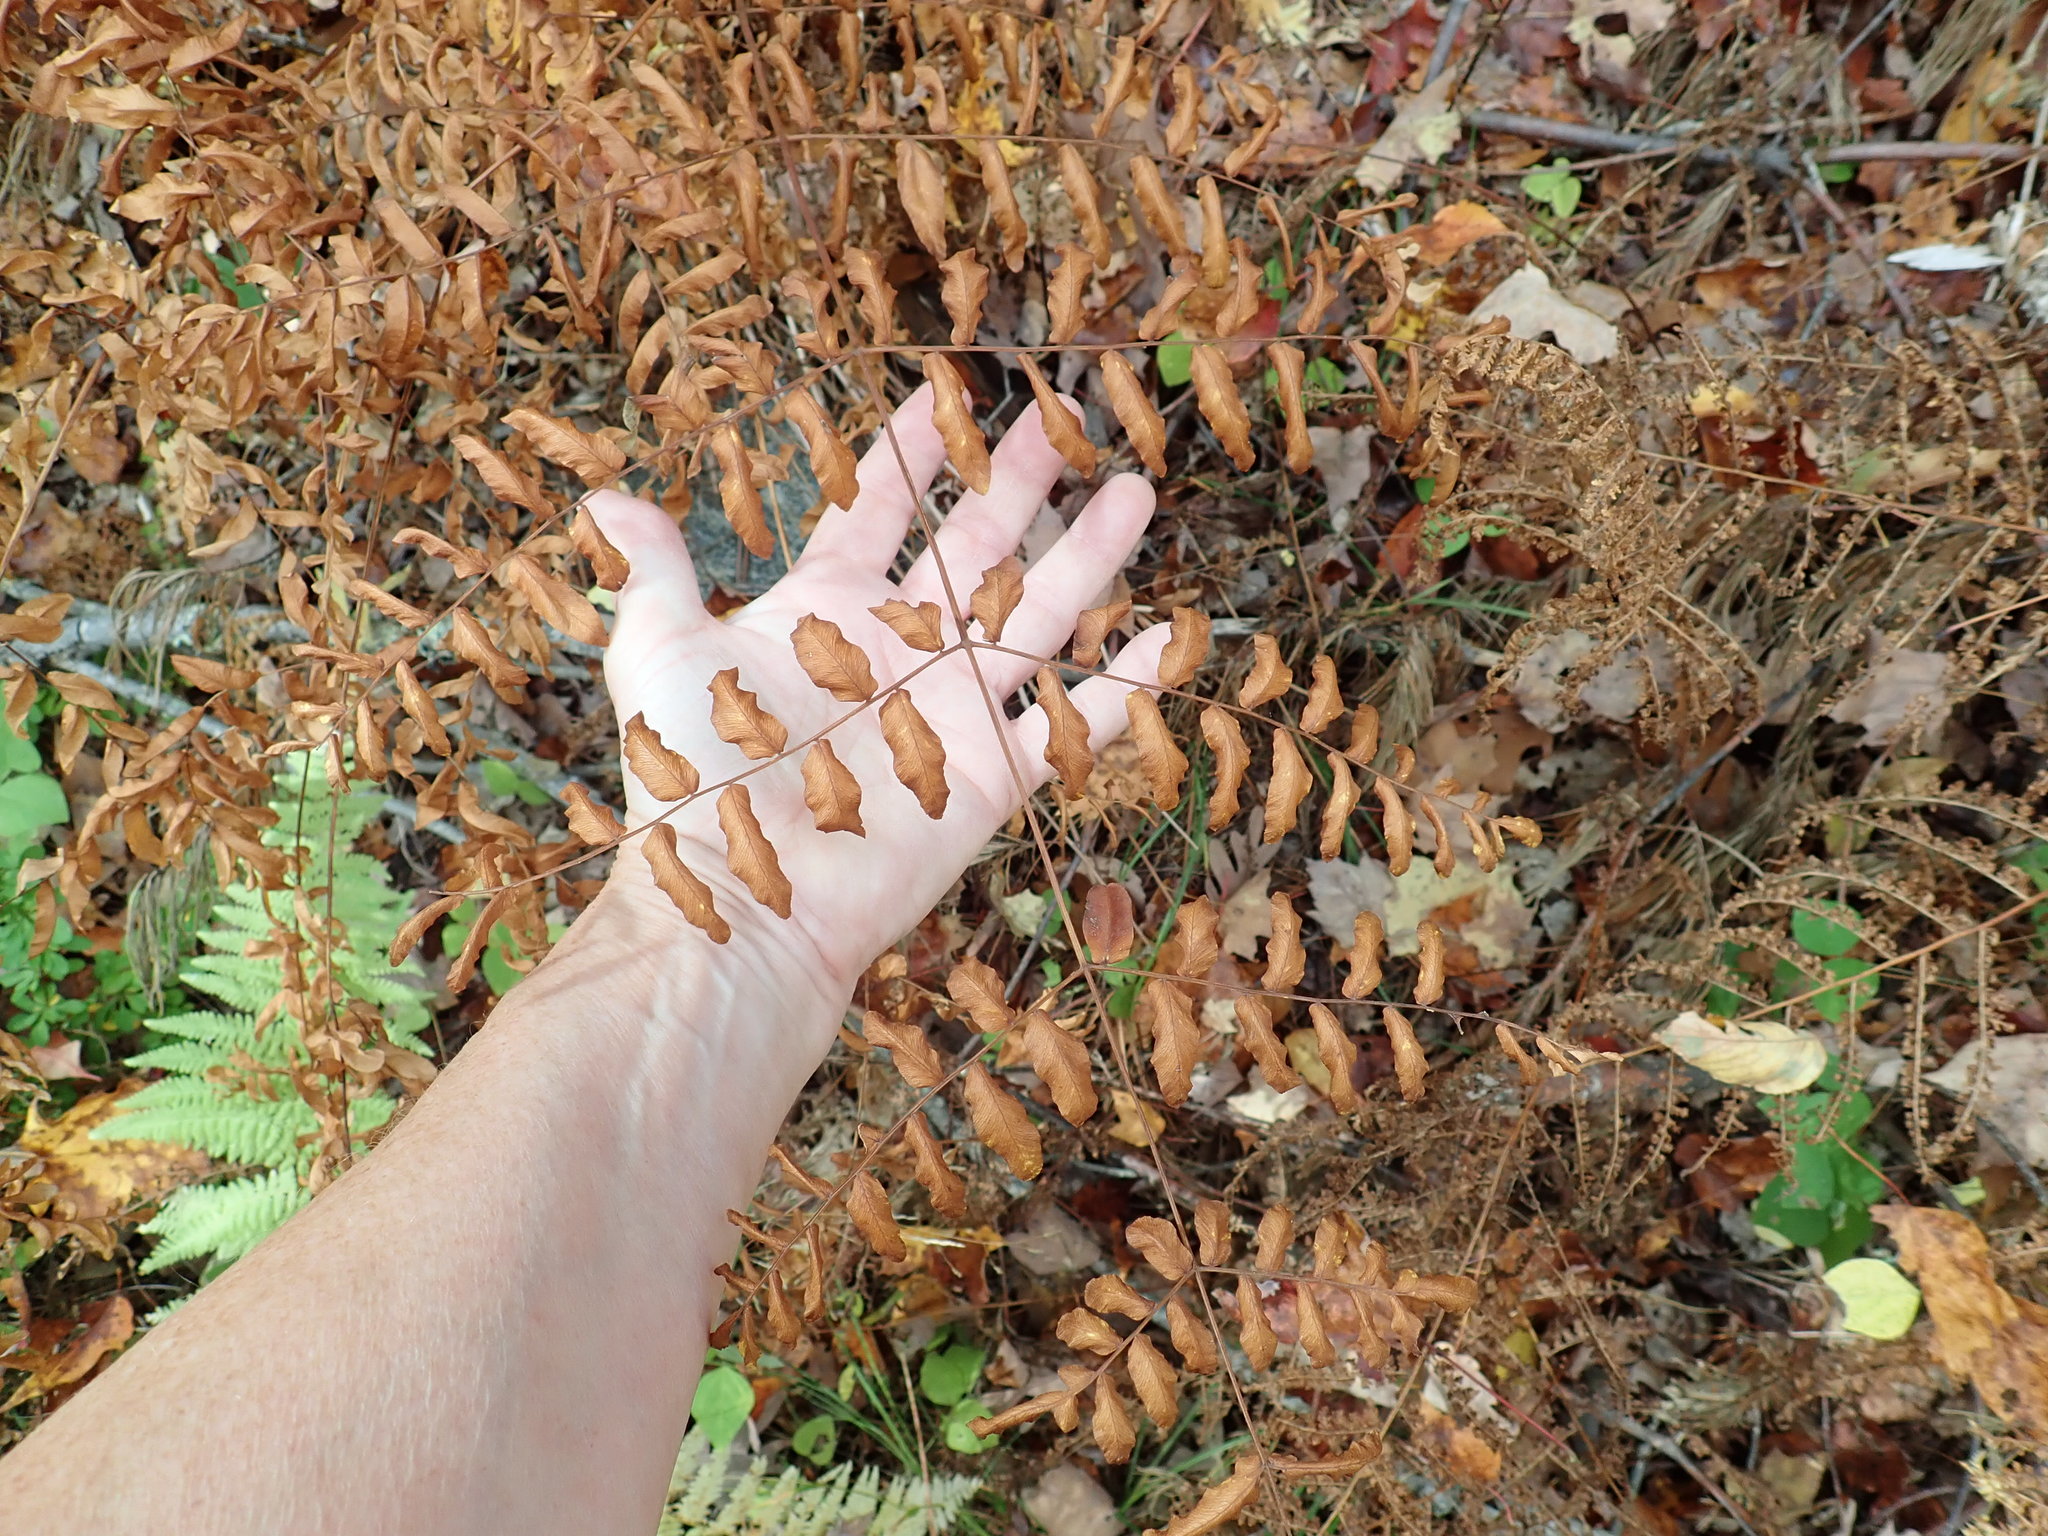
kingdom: Plantae
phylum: Tracheophyta
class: Polypodiopsida
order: Osmundales
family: Osmundaceae
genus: Osmunda
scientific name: Osmunda spectabilis
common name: American royal fern
